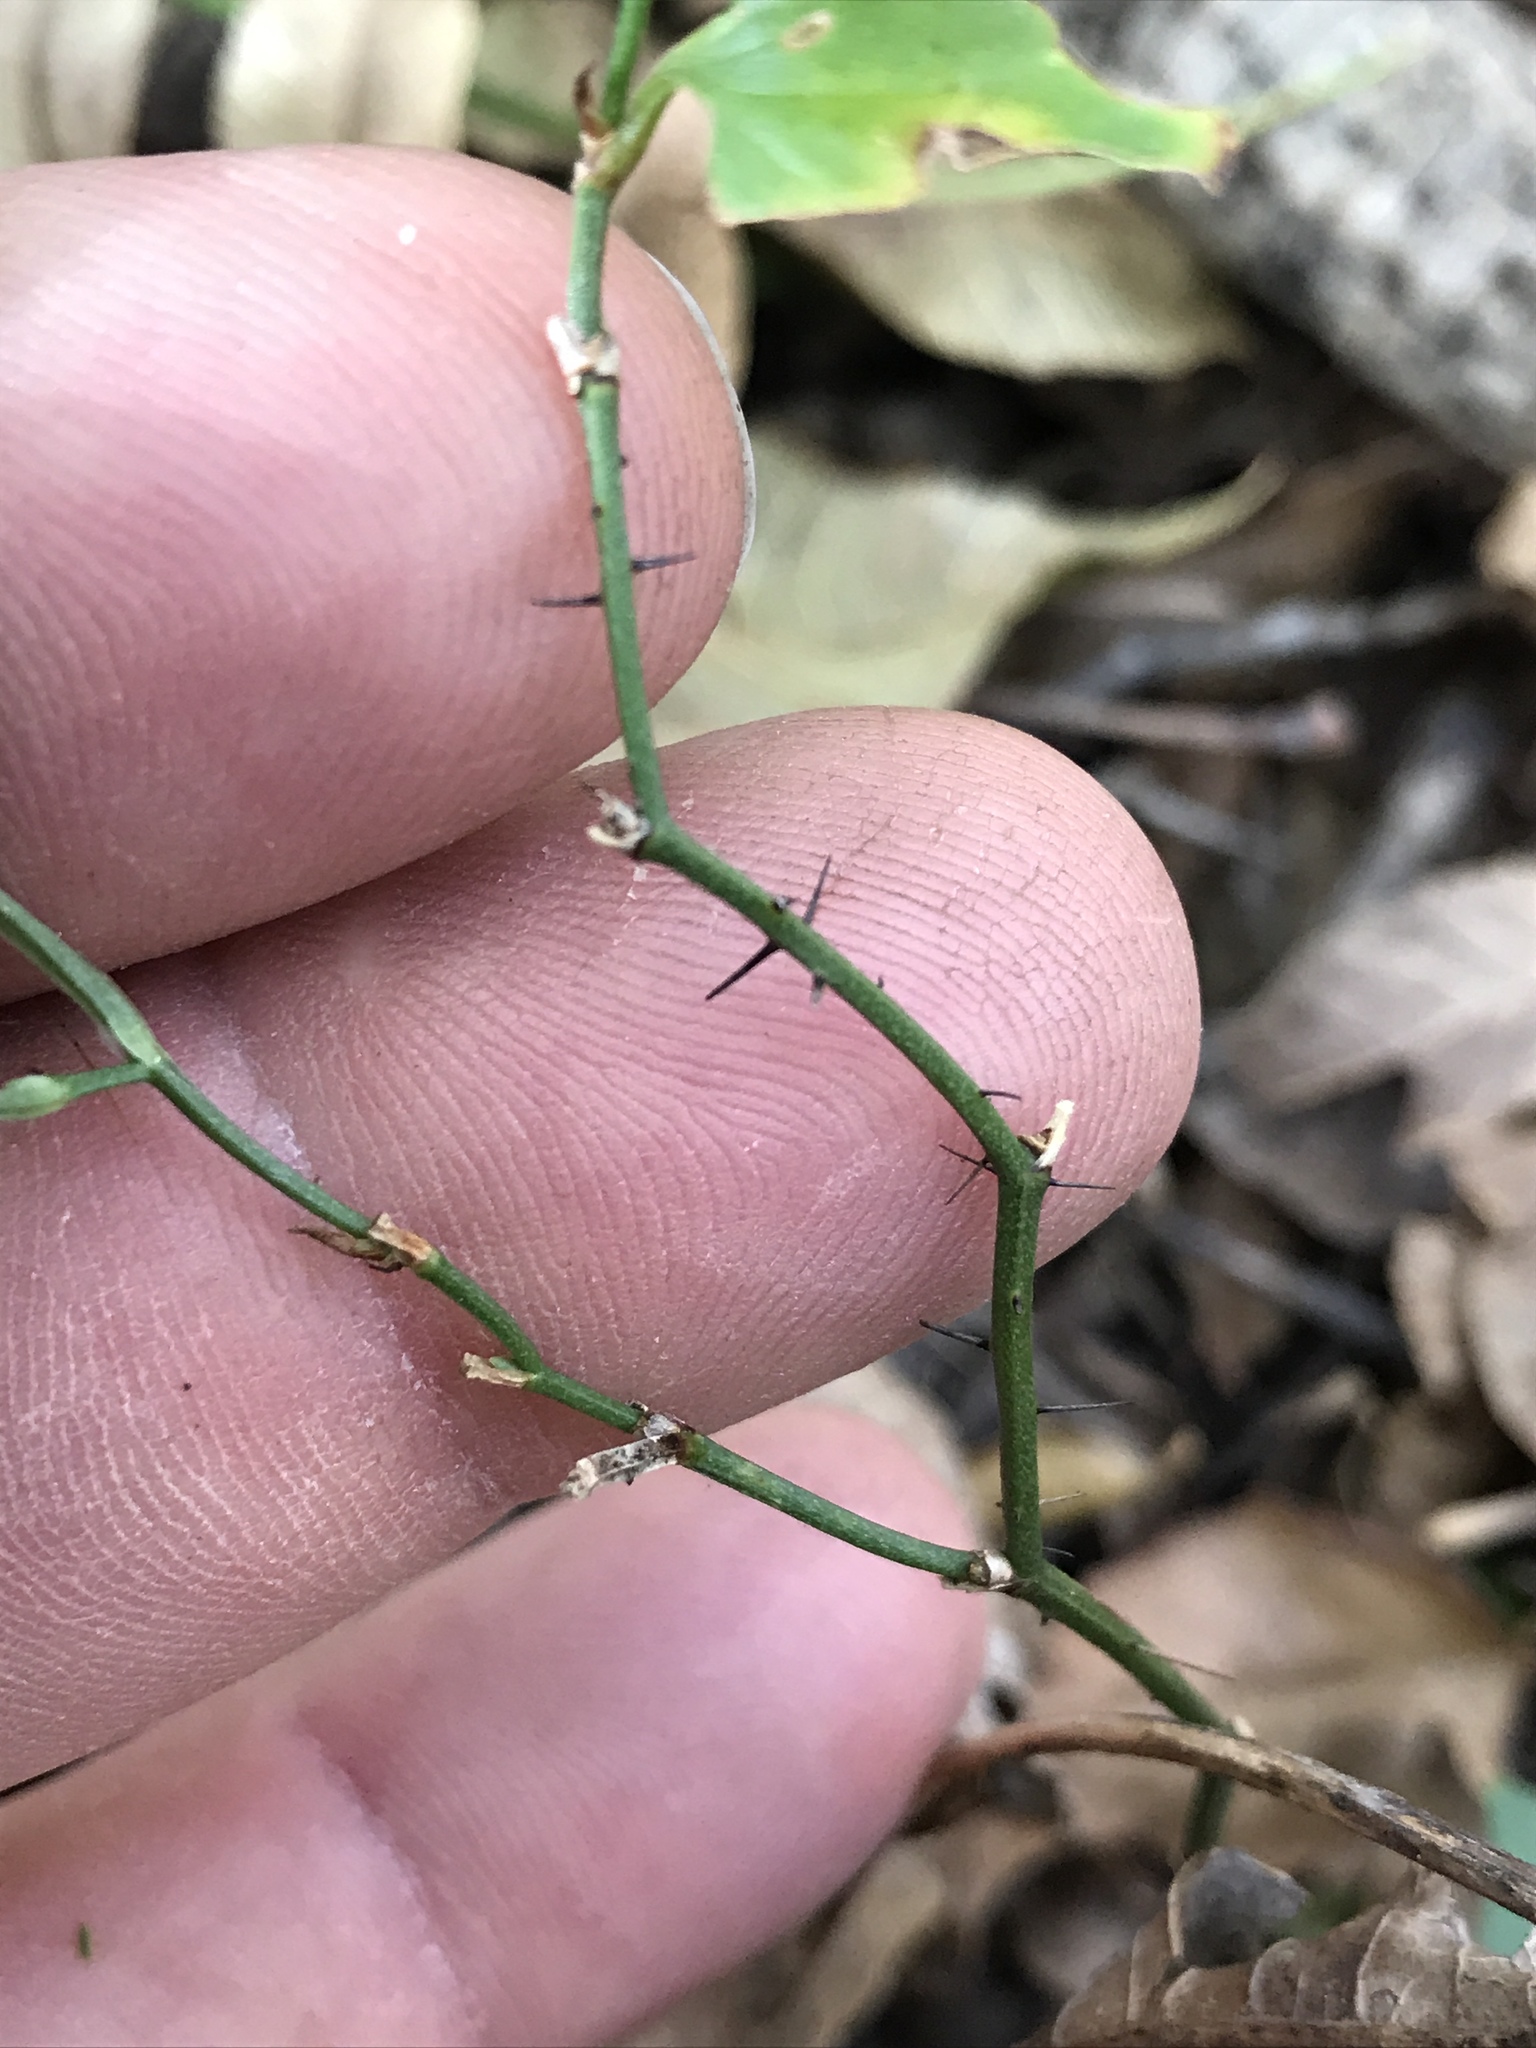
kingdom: Plantae
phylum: Tracheophyta
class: Liliopsida
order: Liliales
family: Smilacaceae
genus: Smilax
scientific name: Smilax tamnoides
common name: Hellfetter
